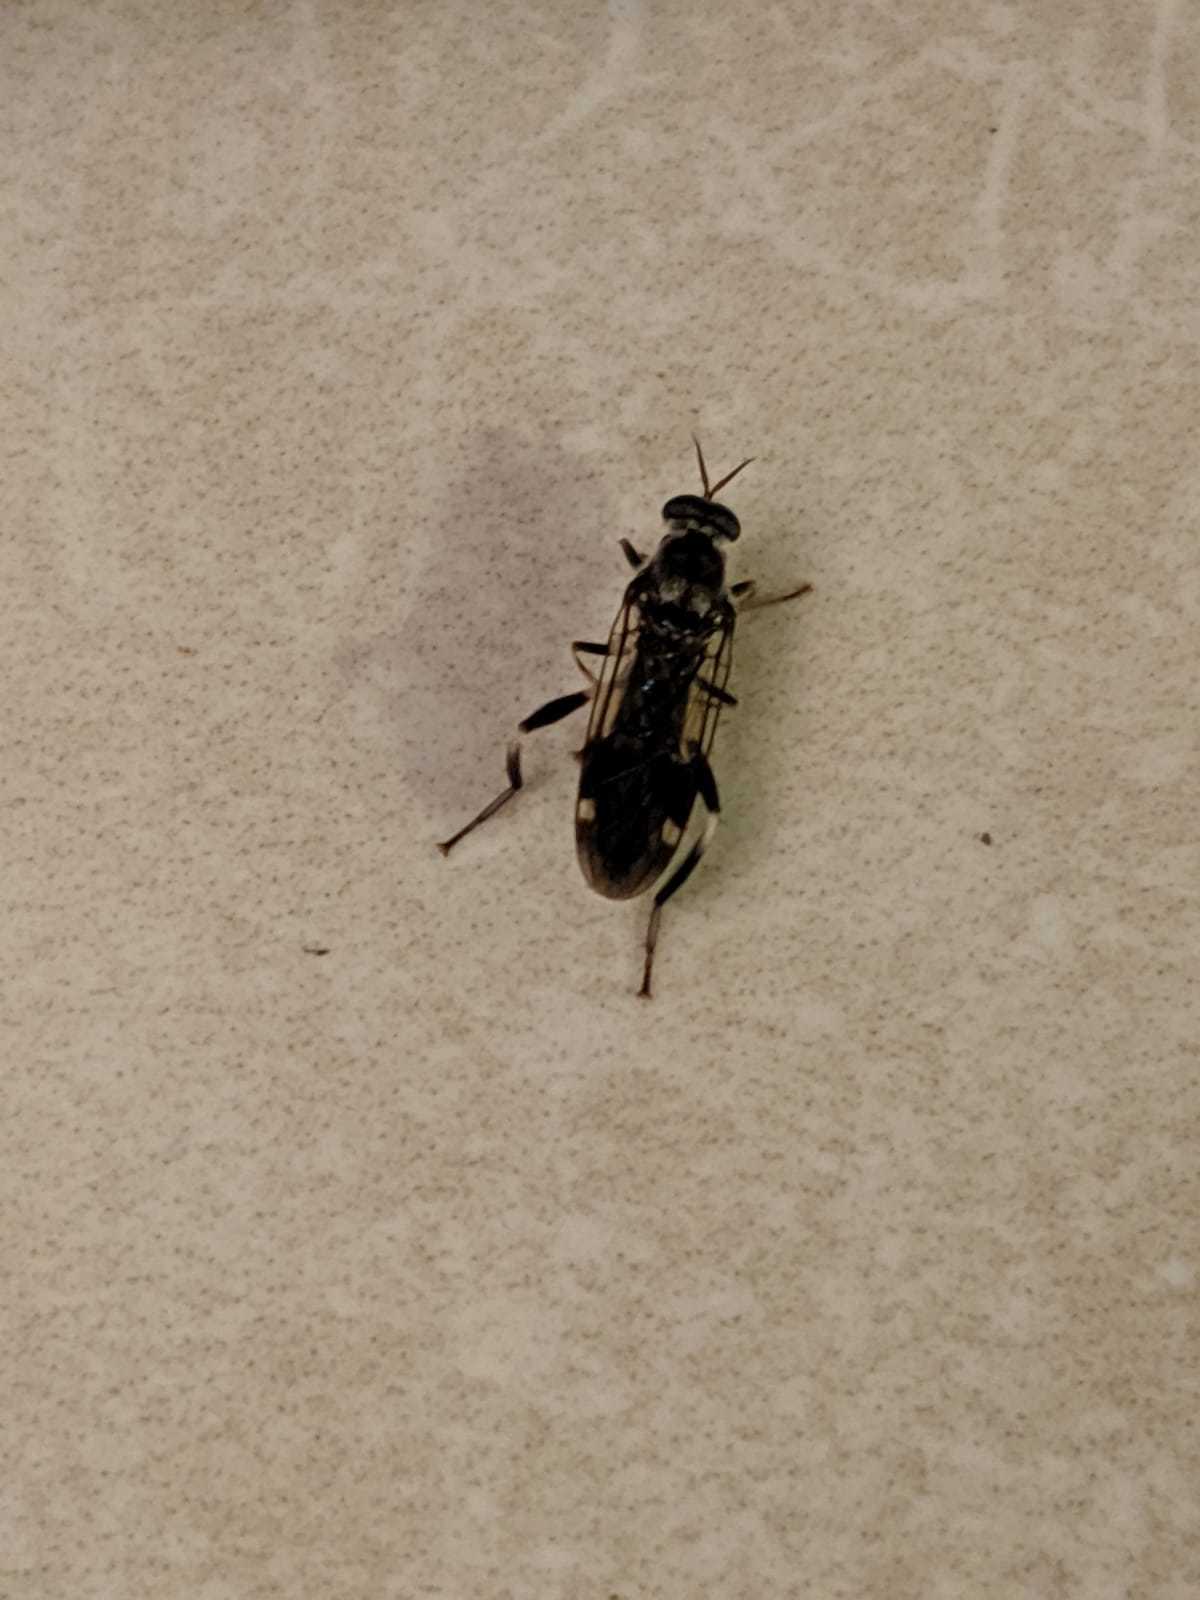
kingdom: Animalia
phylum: Arthropoda
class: Insecta
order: Diptera
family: Stratiomyidae
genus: Exaireta
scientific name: Exaireta spinigera
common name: Blue soldier fly
